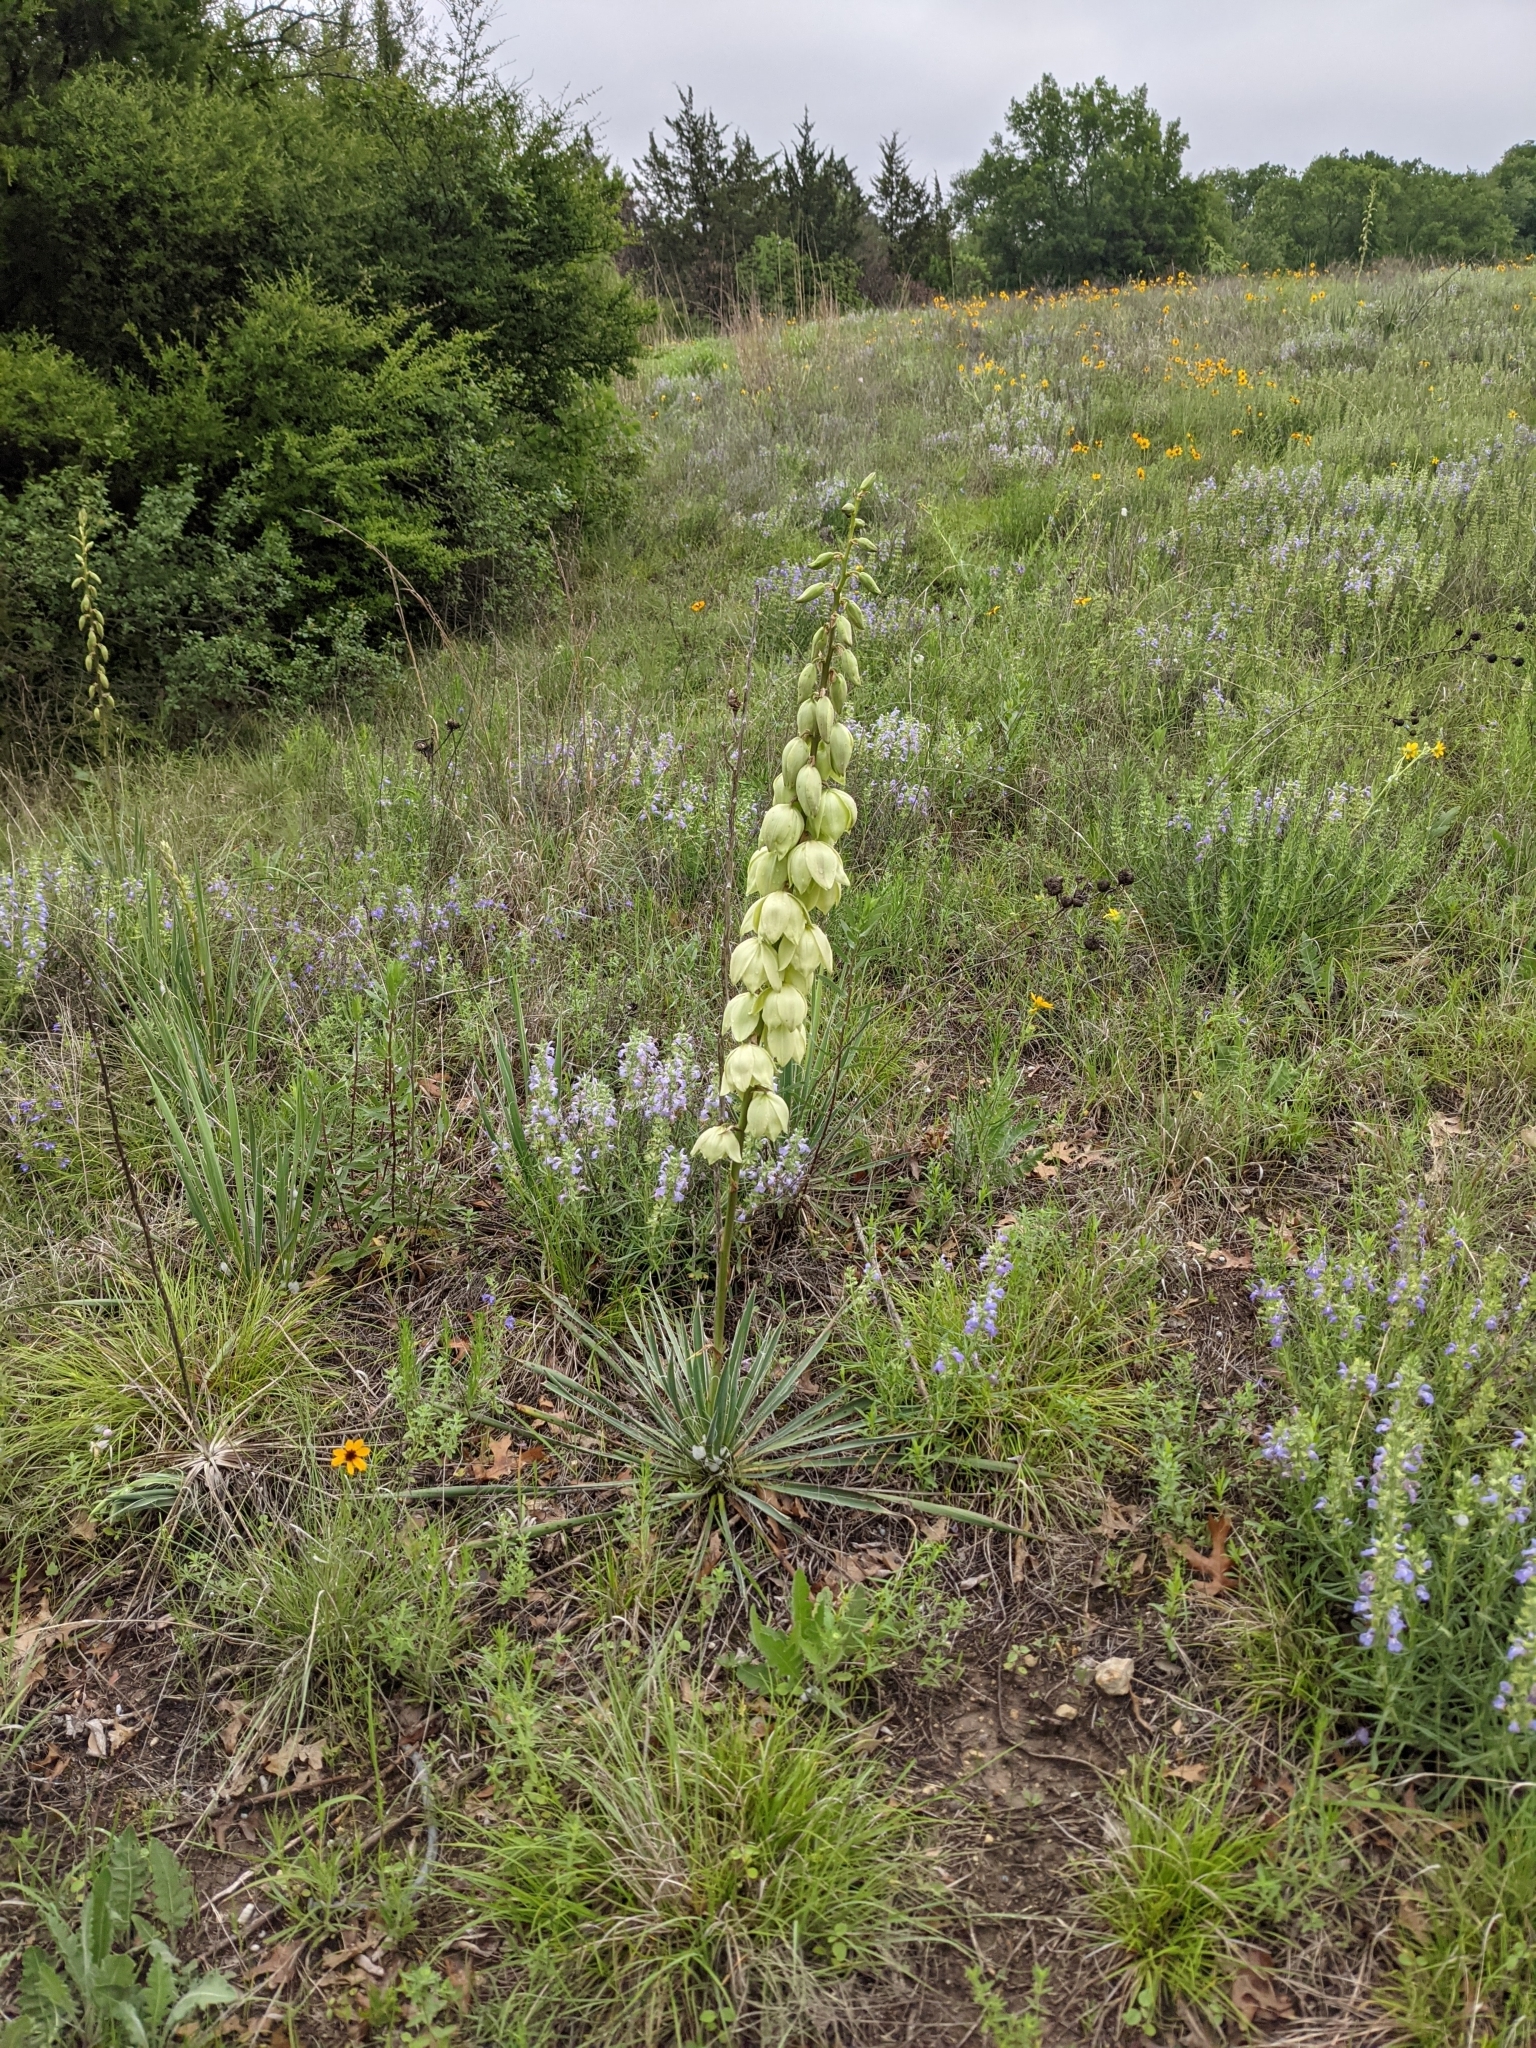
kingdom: Plantae
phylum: Tracheophyta
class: Liliopsida
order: Asparagales
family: Asparagaceae
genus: Yucca
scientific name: Yucca arkansana
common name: Arkansas yucca
